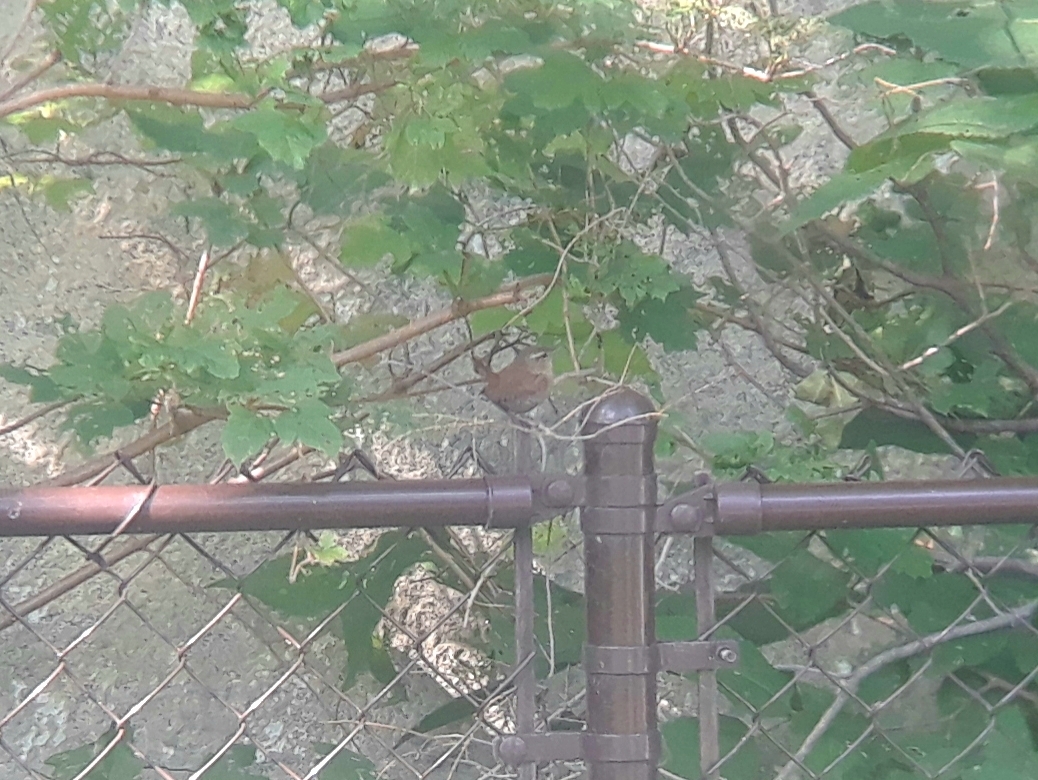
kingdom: Animalia
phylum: Chordata
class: Aves
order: Passeriformes
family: Troglodytidae
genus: Troglodytes
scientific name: Troglodytes hiemalis
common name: Winter wren
